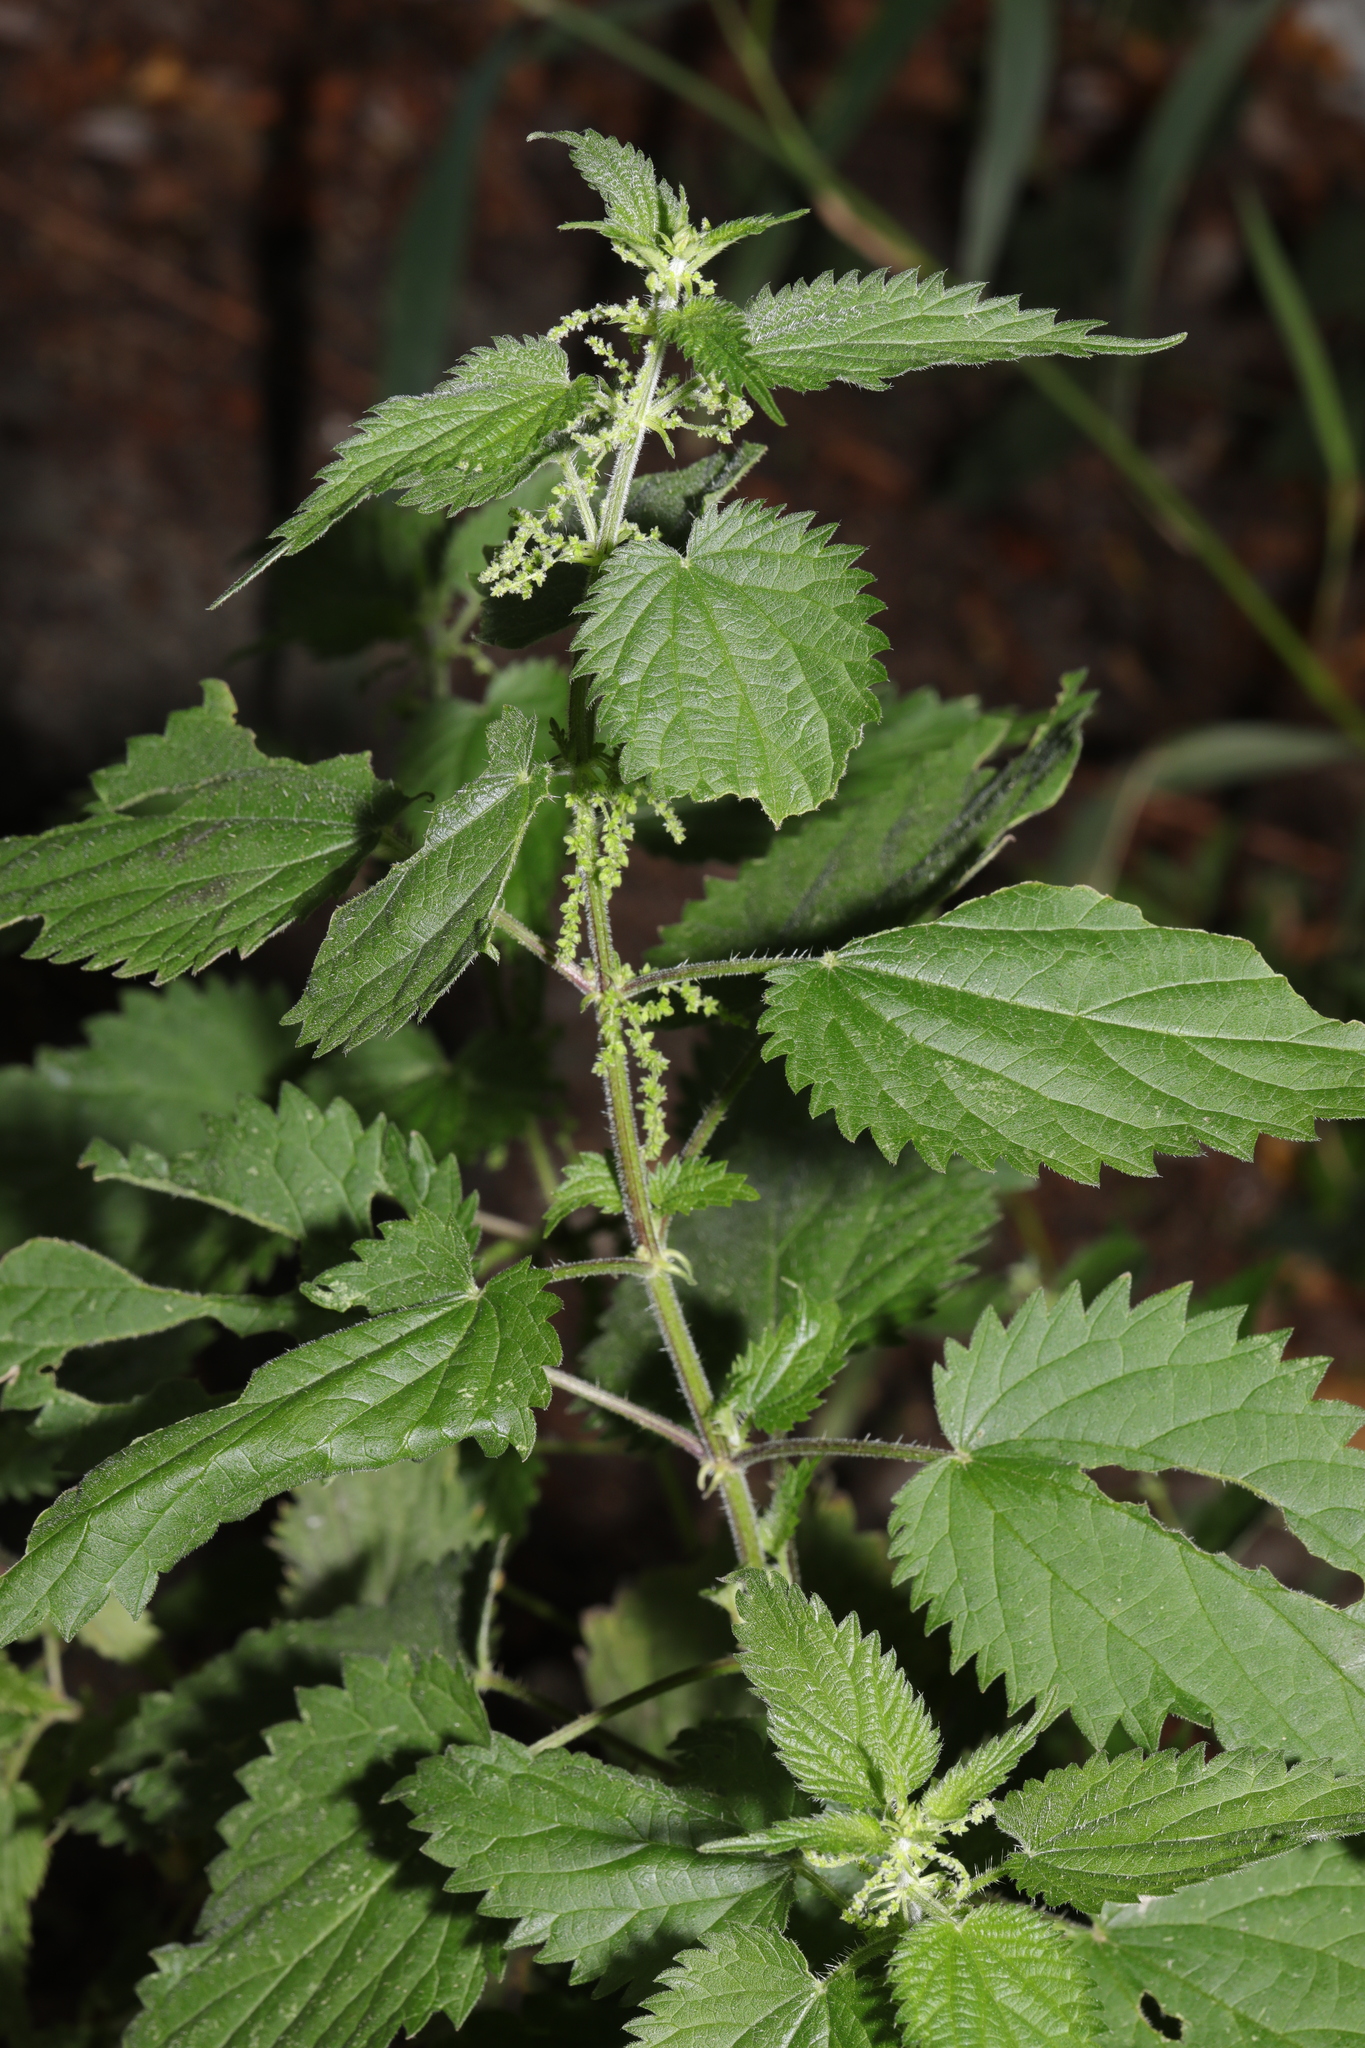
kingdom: Plantae
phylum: Tracheophyta
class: Magnoliopsida
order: Rosales
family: Urticaceae
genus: Urtica
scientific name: Urtica dioica
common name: Common nettle
